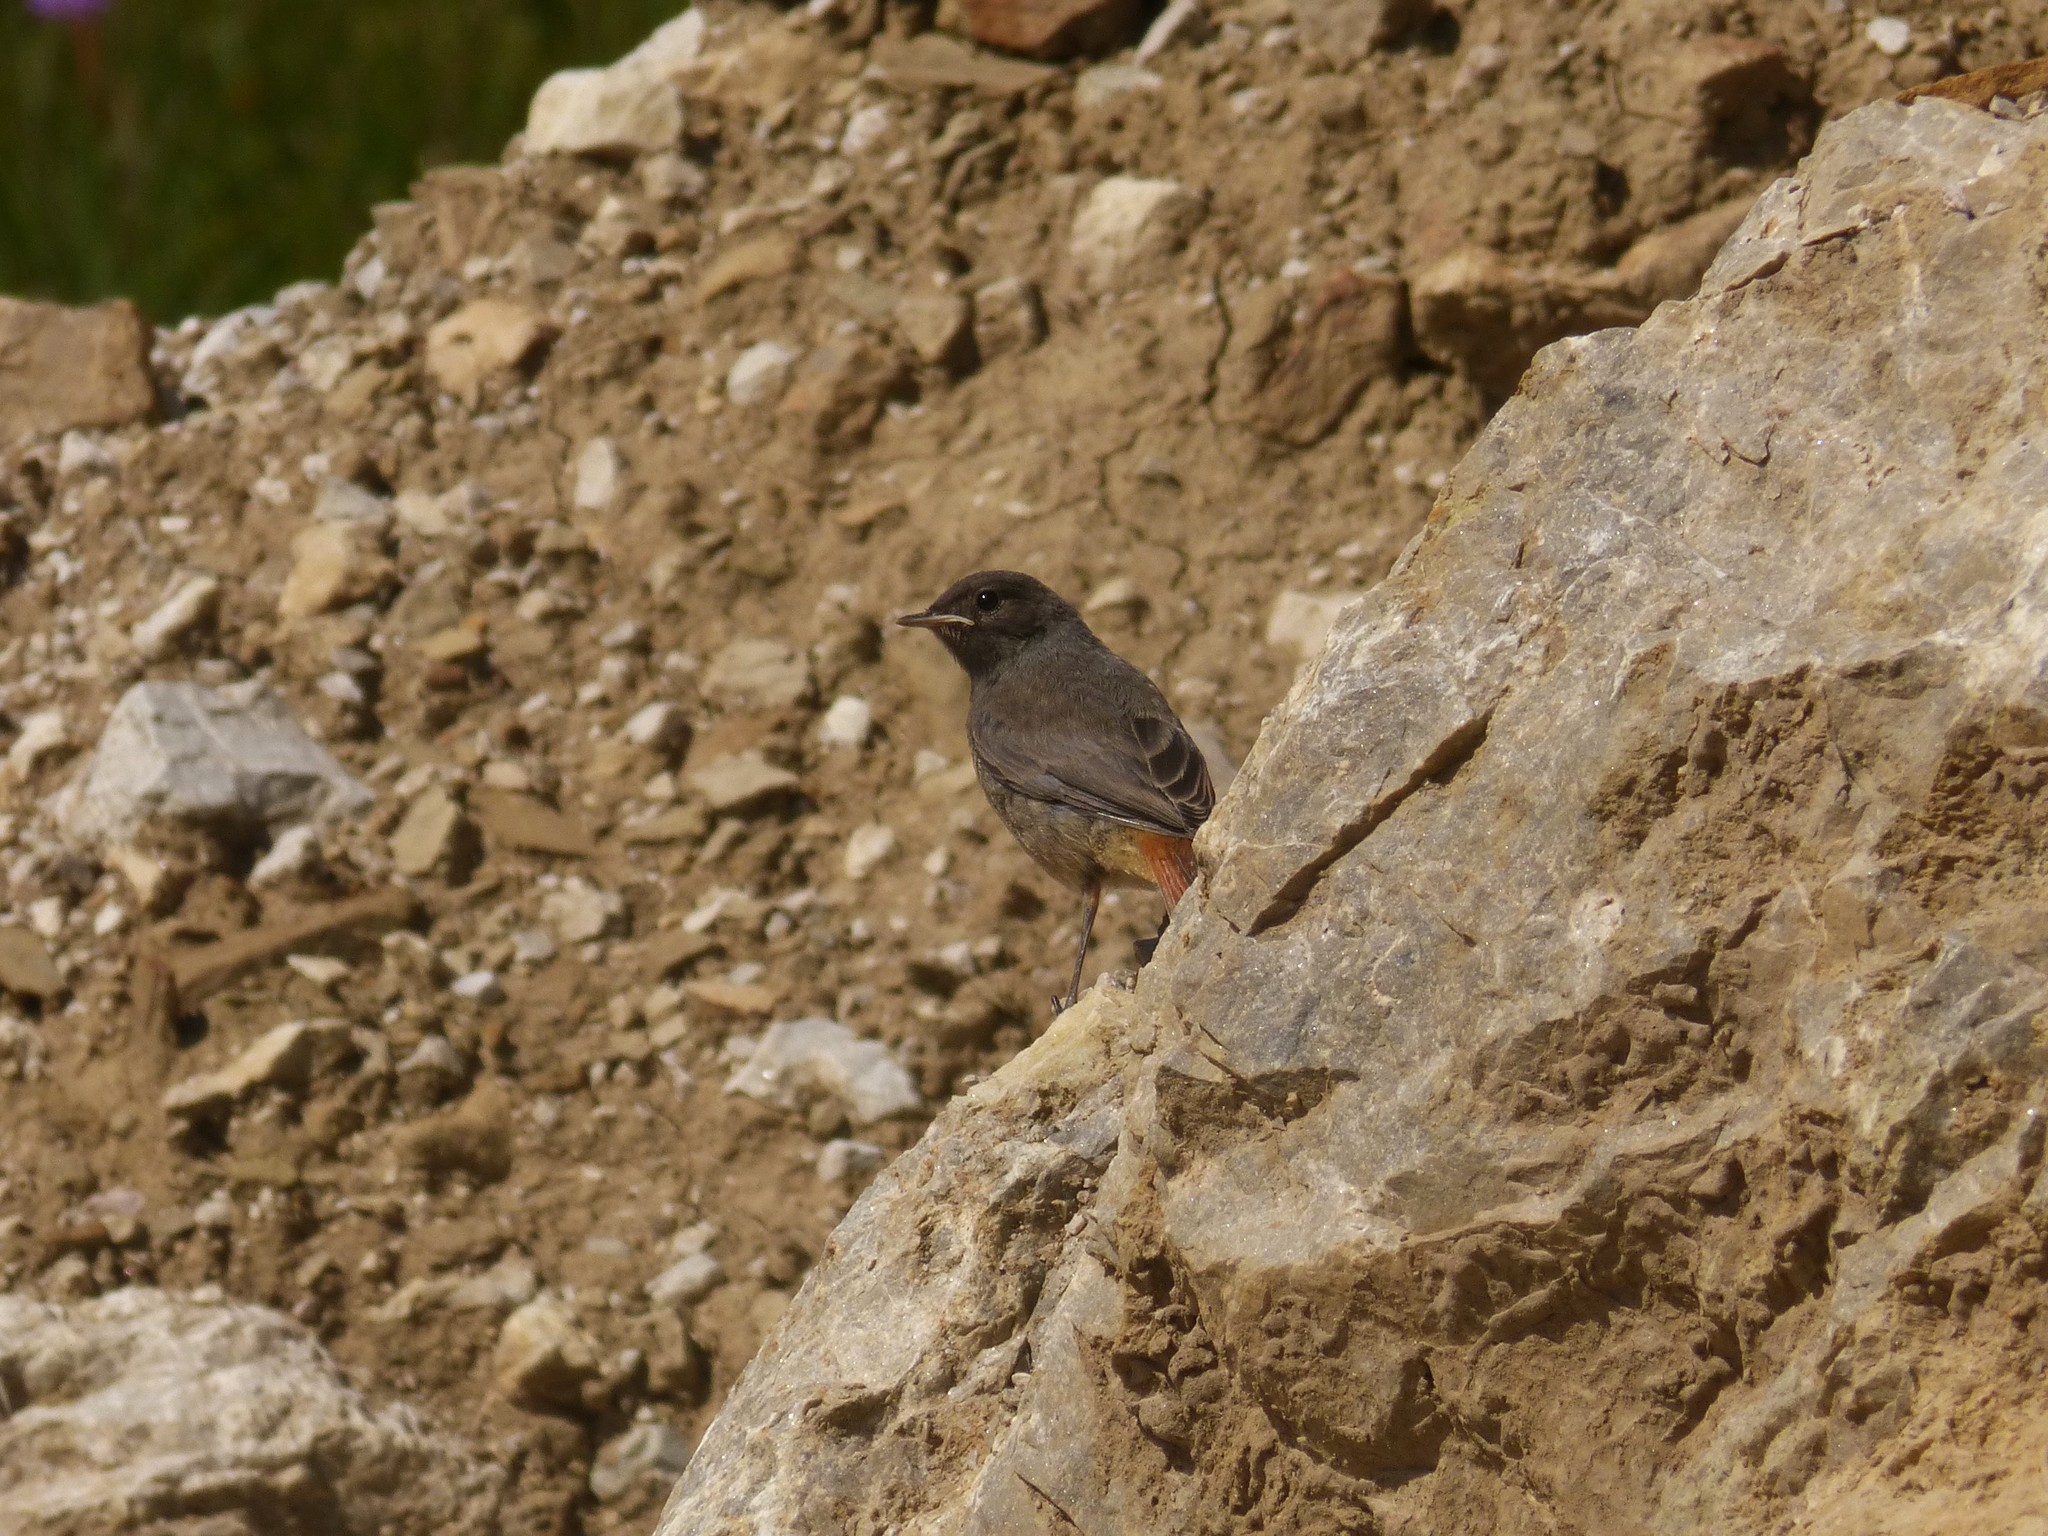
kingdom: Animalia
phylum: Chordata
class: Aves
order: Passeriformes
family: Muscicapidae
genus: Phoenicurus
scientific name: Phoenicurus ochruros
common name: Black redstart
